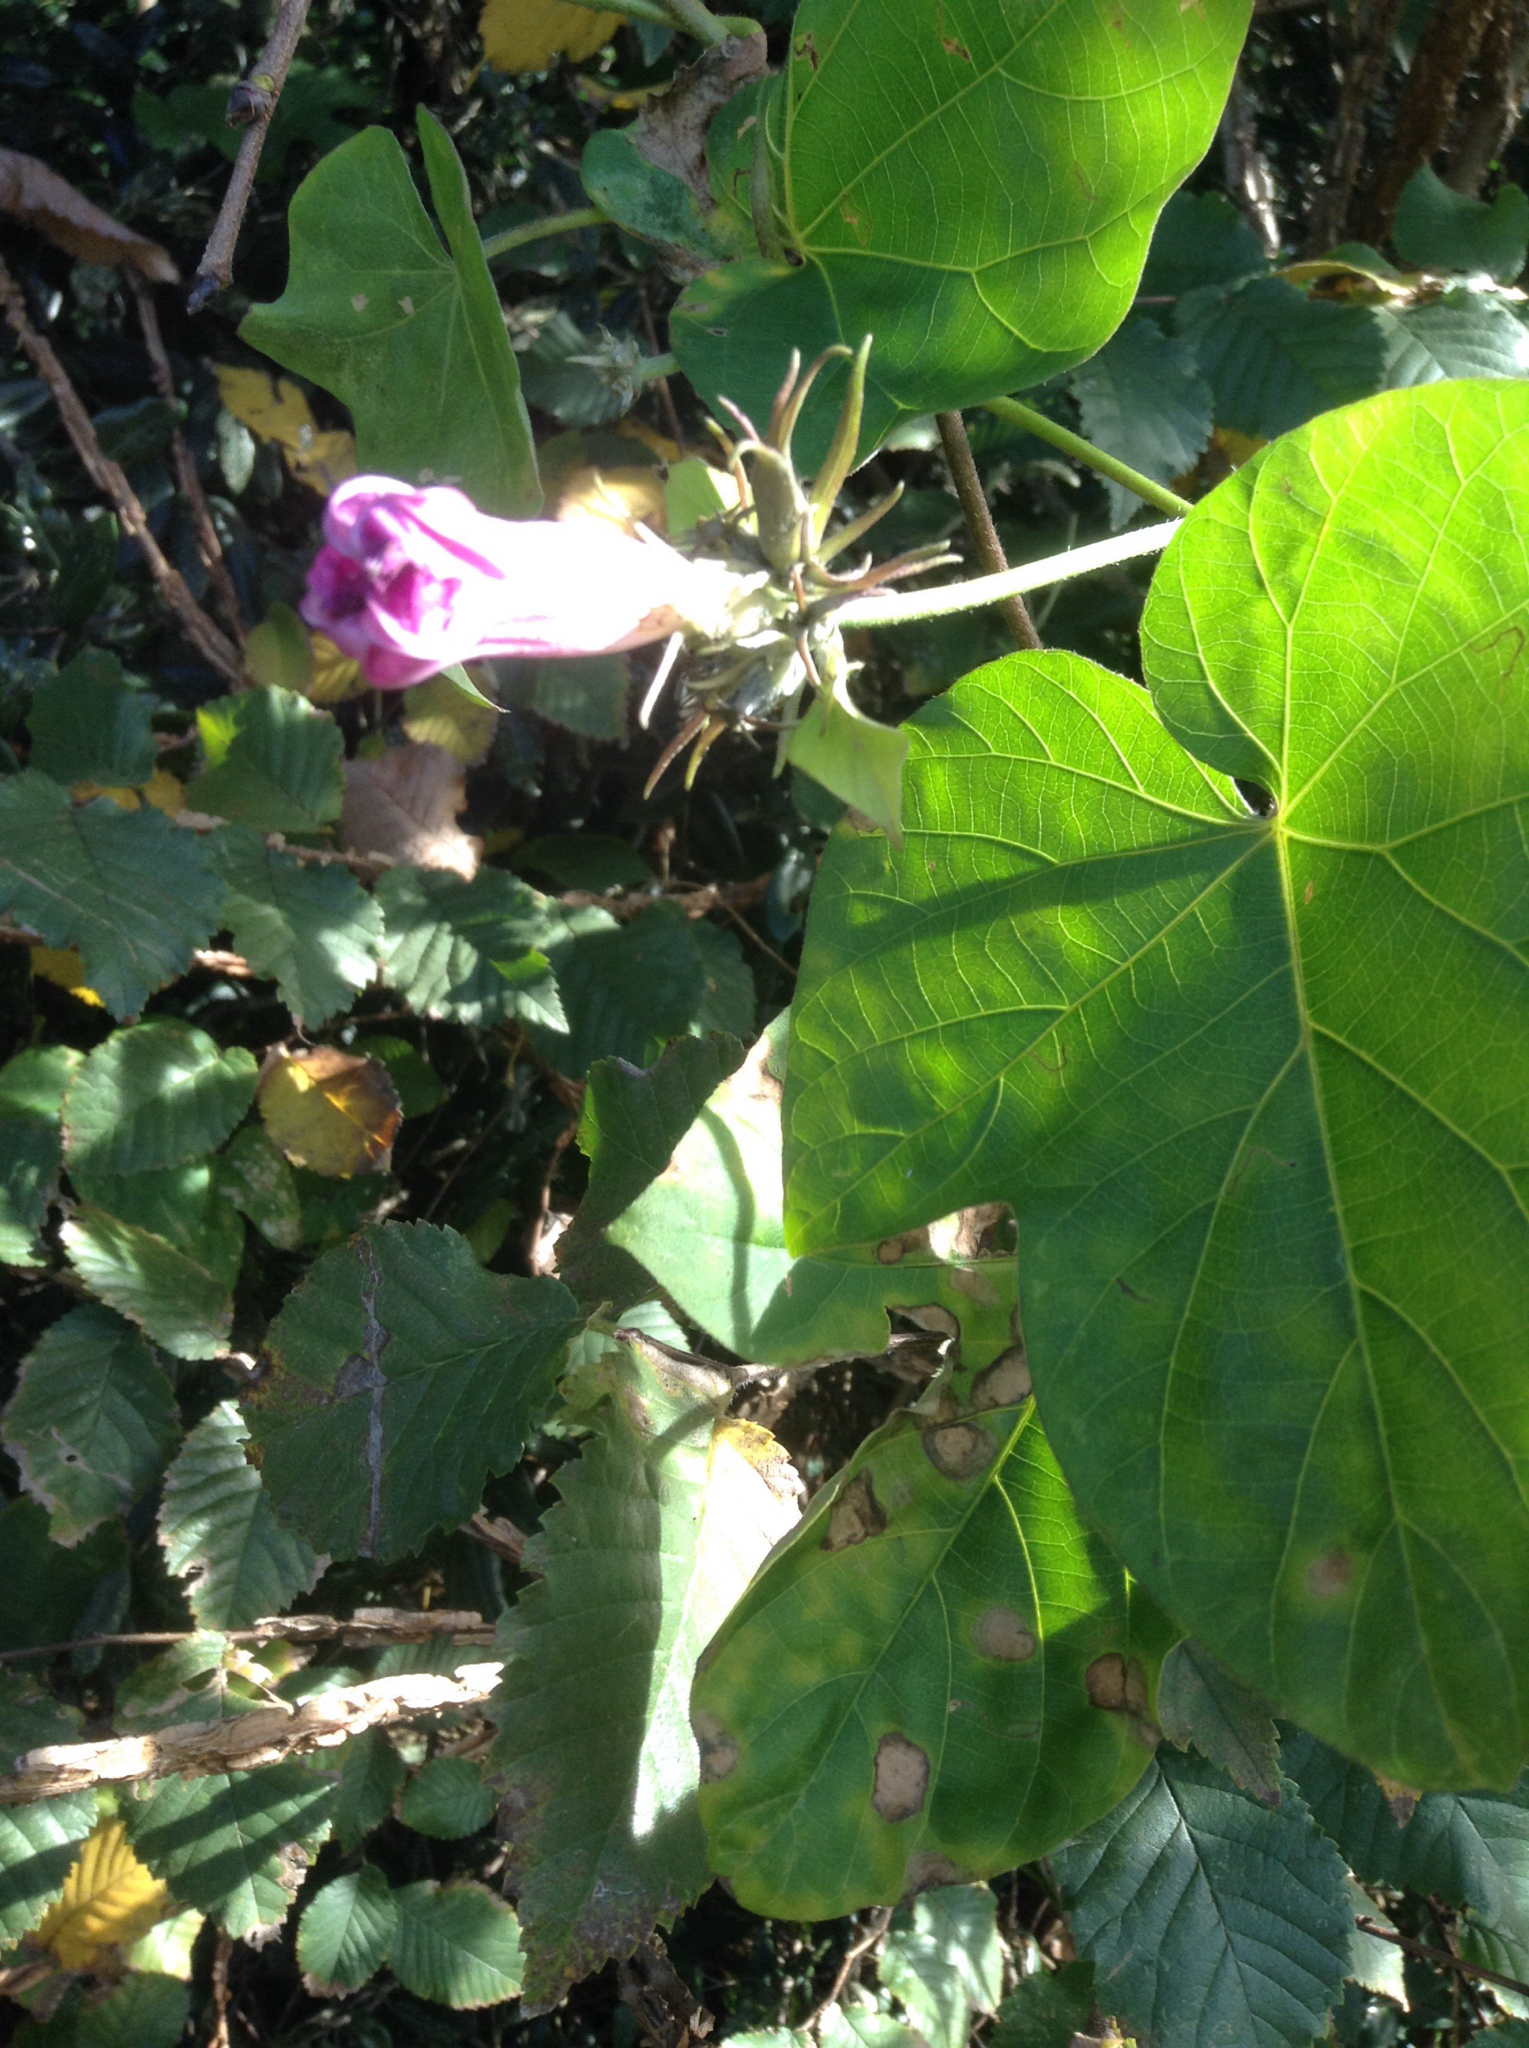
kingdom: Plantae
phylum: Tracheophyta
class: Magnoliopsida
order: Solanales
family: Convolvulaceae
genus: Ipomoea
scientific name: Ipomoea indica
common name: Blue dawnflower
